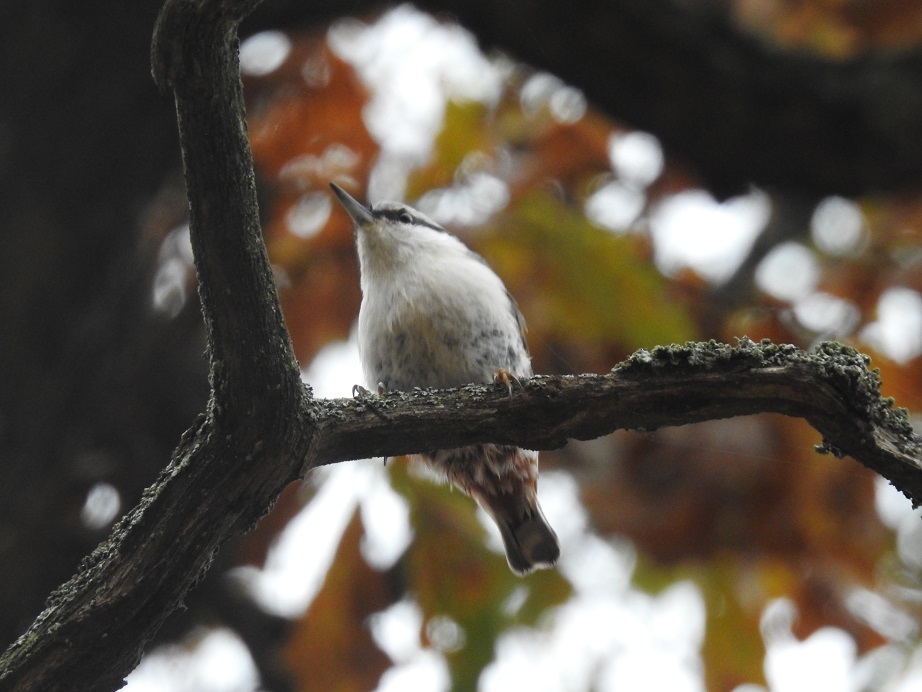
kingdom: Animalia
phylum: Chordata
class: Aves
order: Passeriformes
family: Sittidae
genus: Sitta
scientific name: Sitta europaea
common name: Eurasian nuthatch
